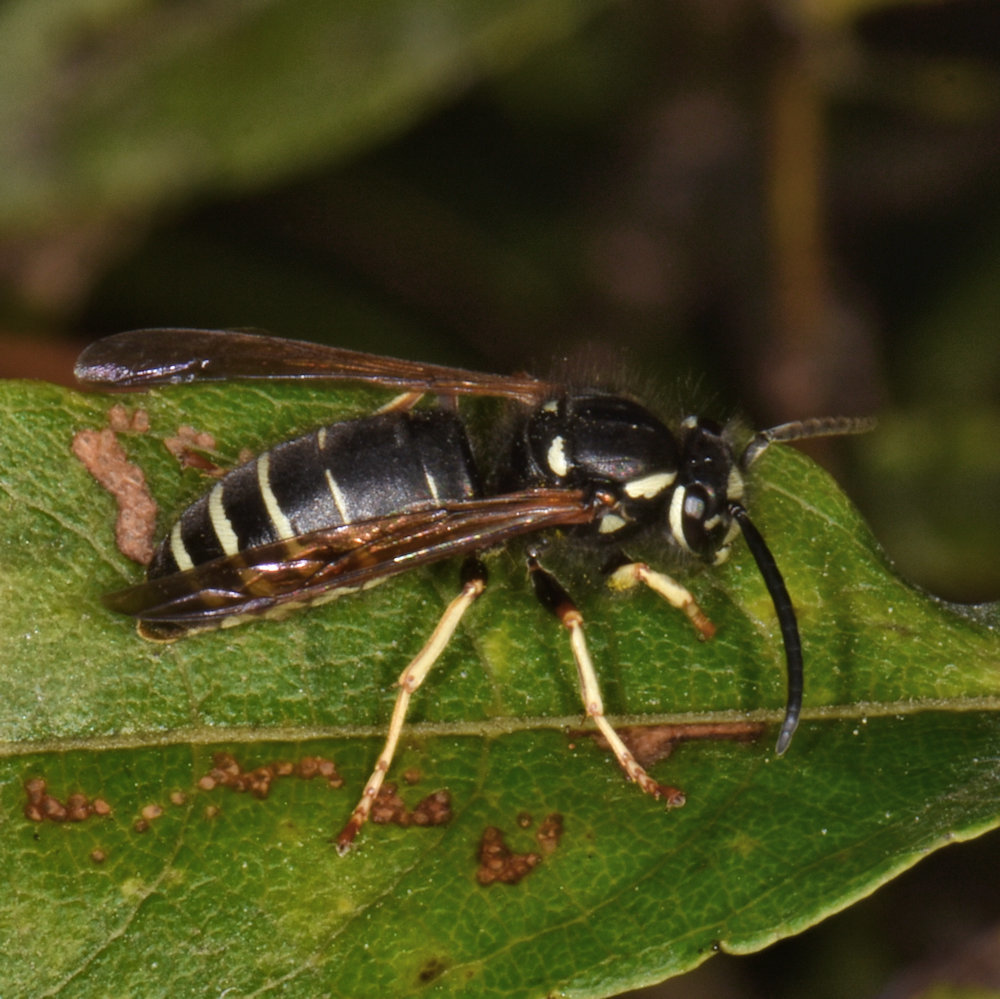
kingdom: Animalia
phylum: Arthropoda
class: Insecta
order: Hymenoptera
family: Vespidae
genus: Vespula
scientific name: Vespula consobrina
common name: Blackjacket
